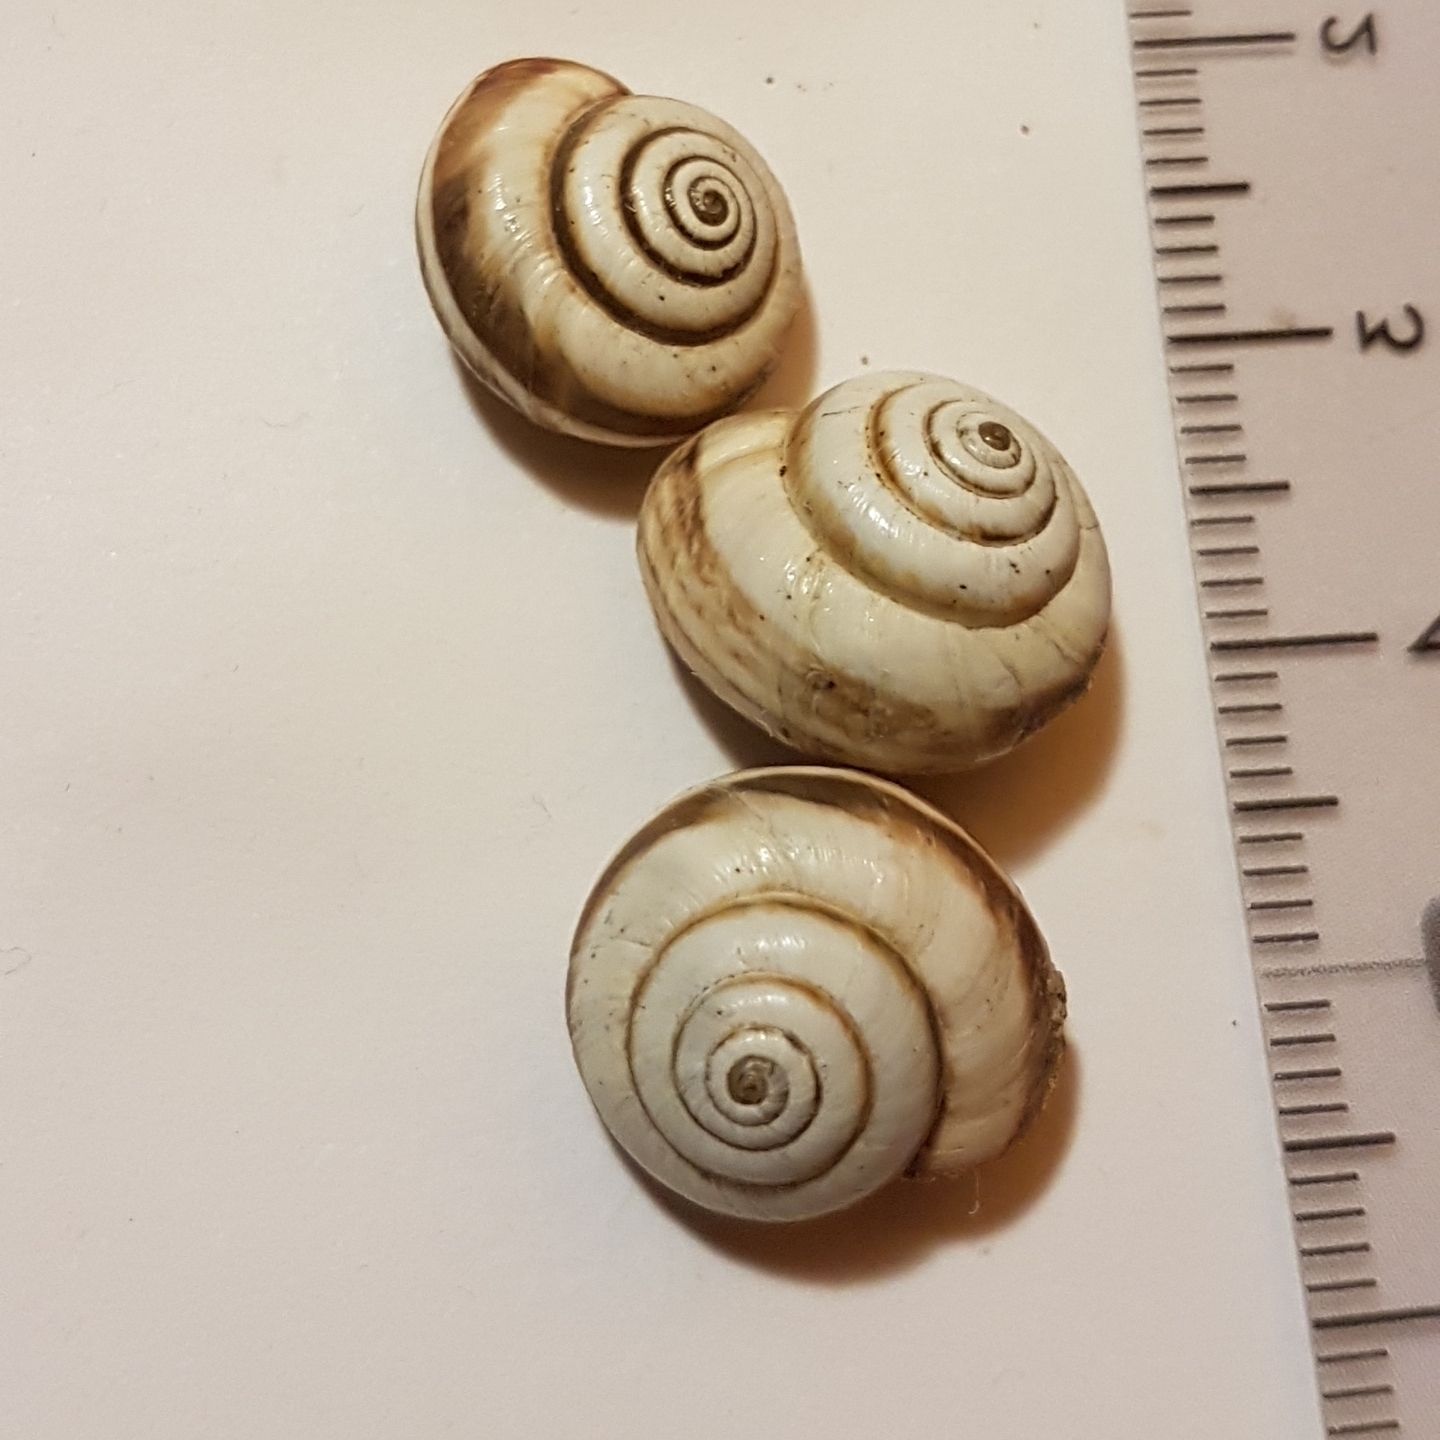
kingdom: Animalia
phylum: Mollusca
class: Gastropoda
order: Stylommatophora
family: Geomitridae
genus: Cernuella
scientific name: Cernuella virgata
